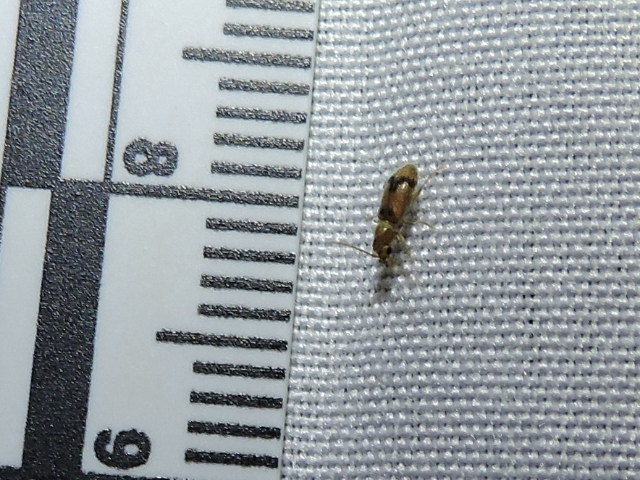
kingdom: Animalia
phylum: Arthropoda
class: Insecta
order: Coleoptera
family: Anthicidae
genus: Notoxus
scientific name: Notoxus monodon
